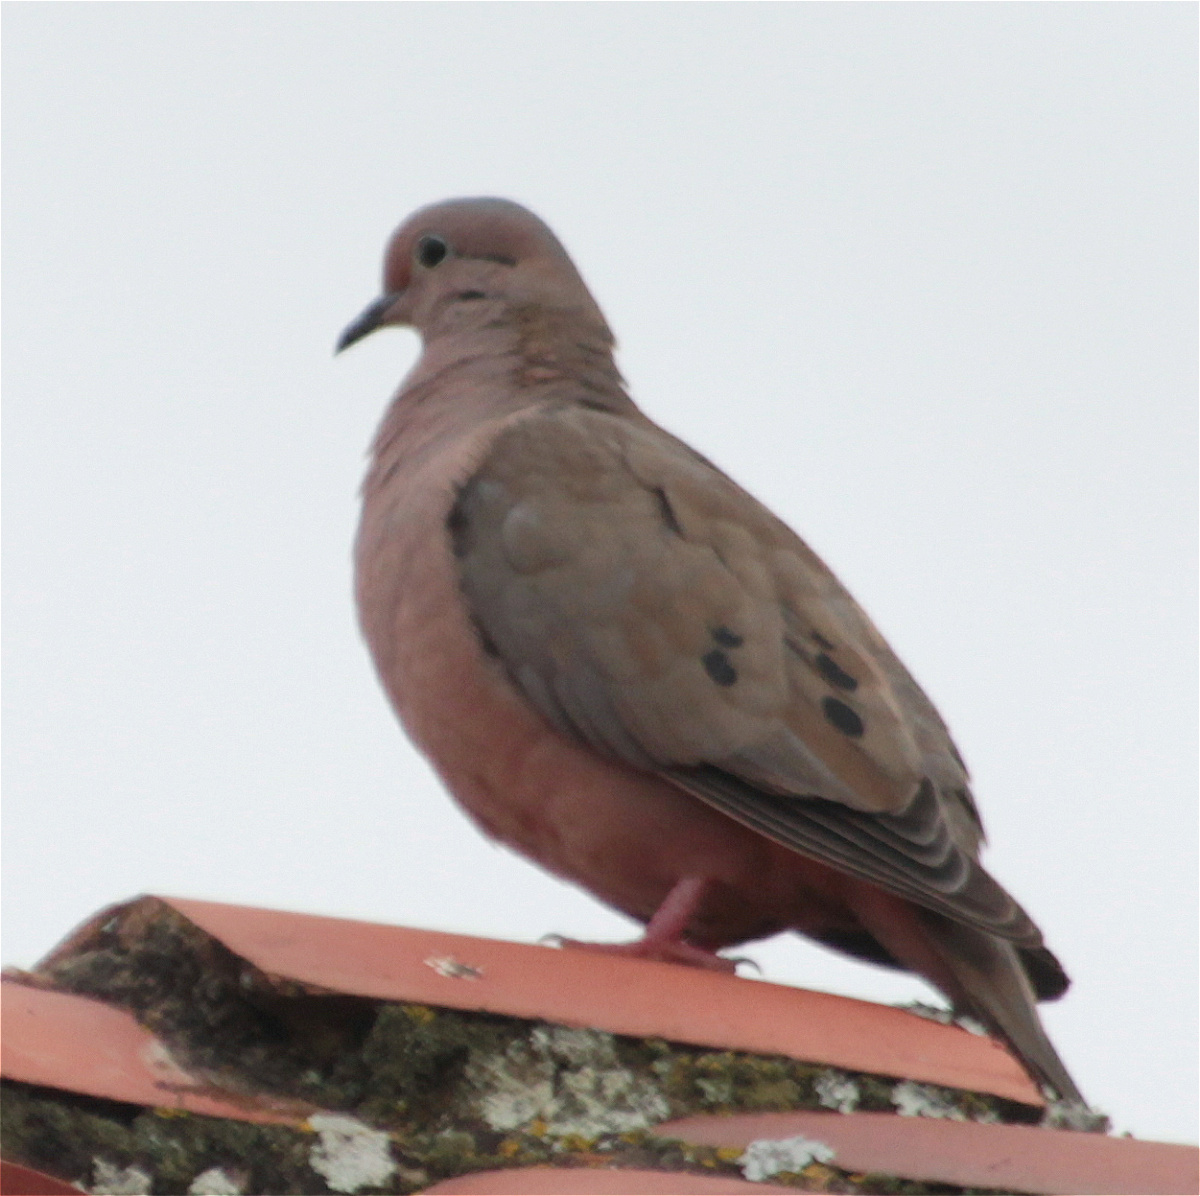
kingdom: Animalia
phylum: Chordata
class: Aves
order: Columbiformes
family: Columbidae
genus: Zenaida
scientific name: Zenaida auriculata
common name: Eared dove
